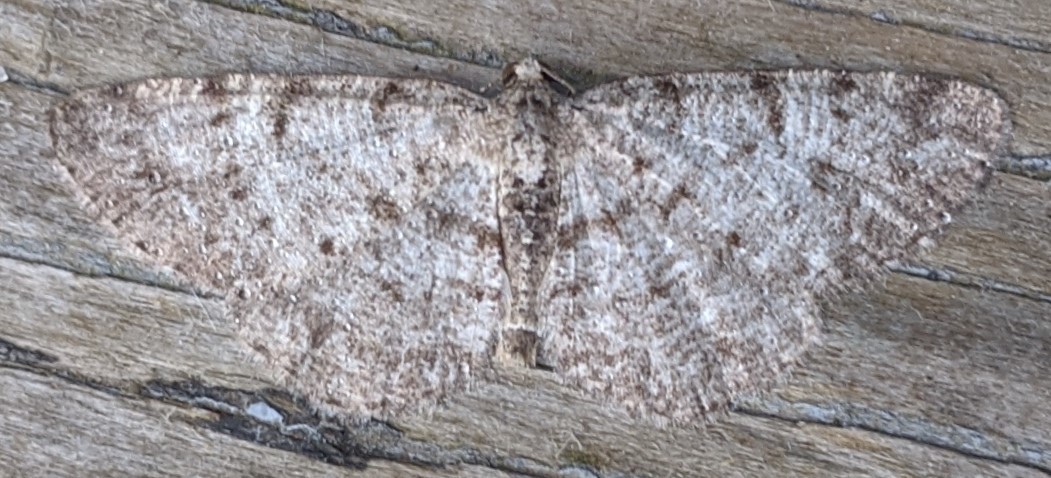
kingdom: Animalia
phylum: Arthropoda
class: Insecta
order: Lepidoptera
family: Geometridae
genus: Aethalura
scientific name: Aethalura intertexta
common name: Four-barred gray
